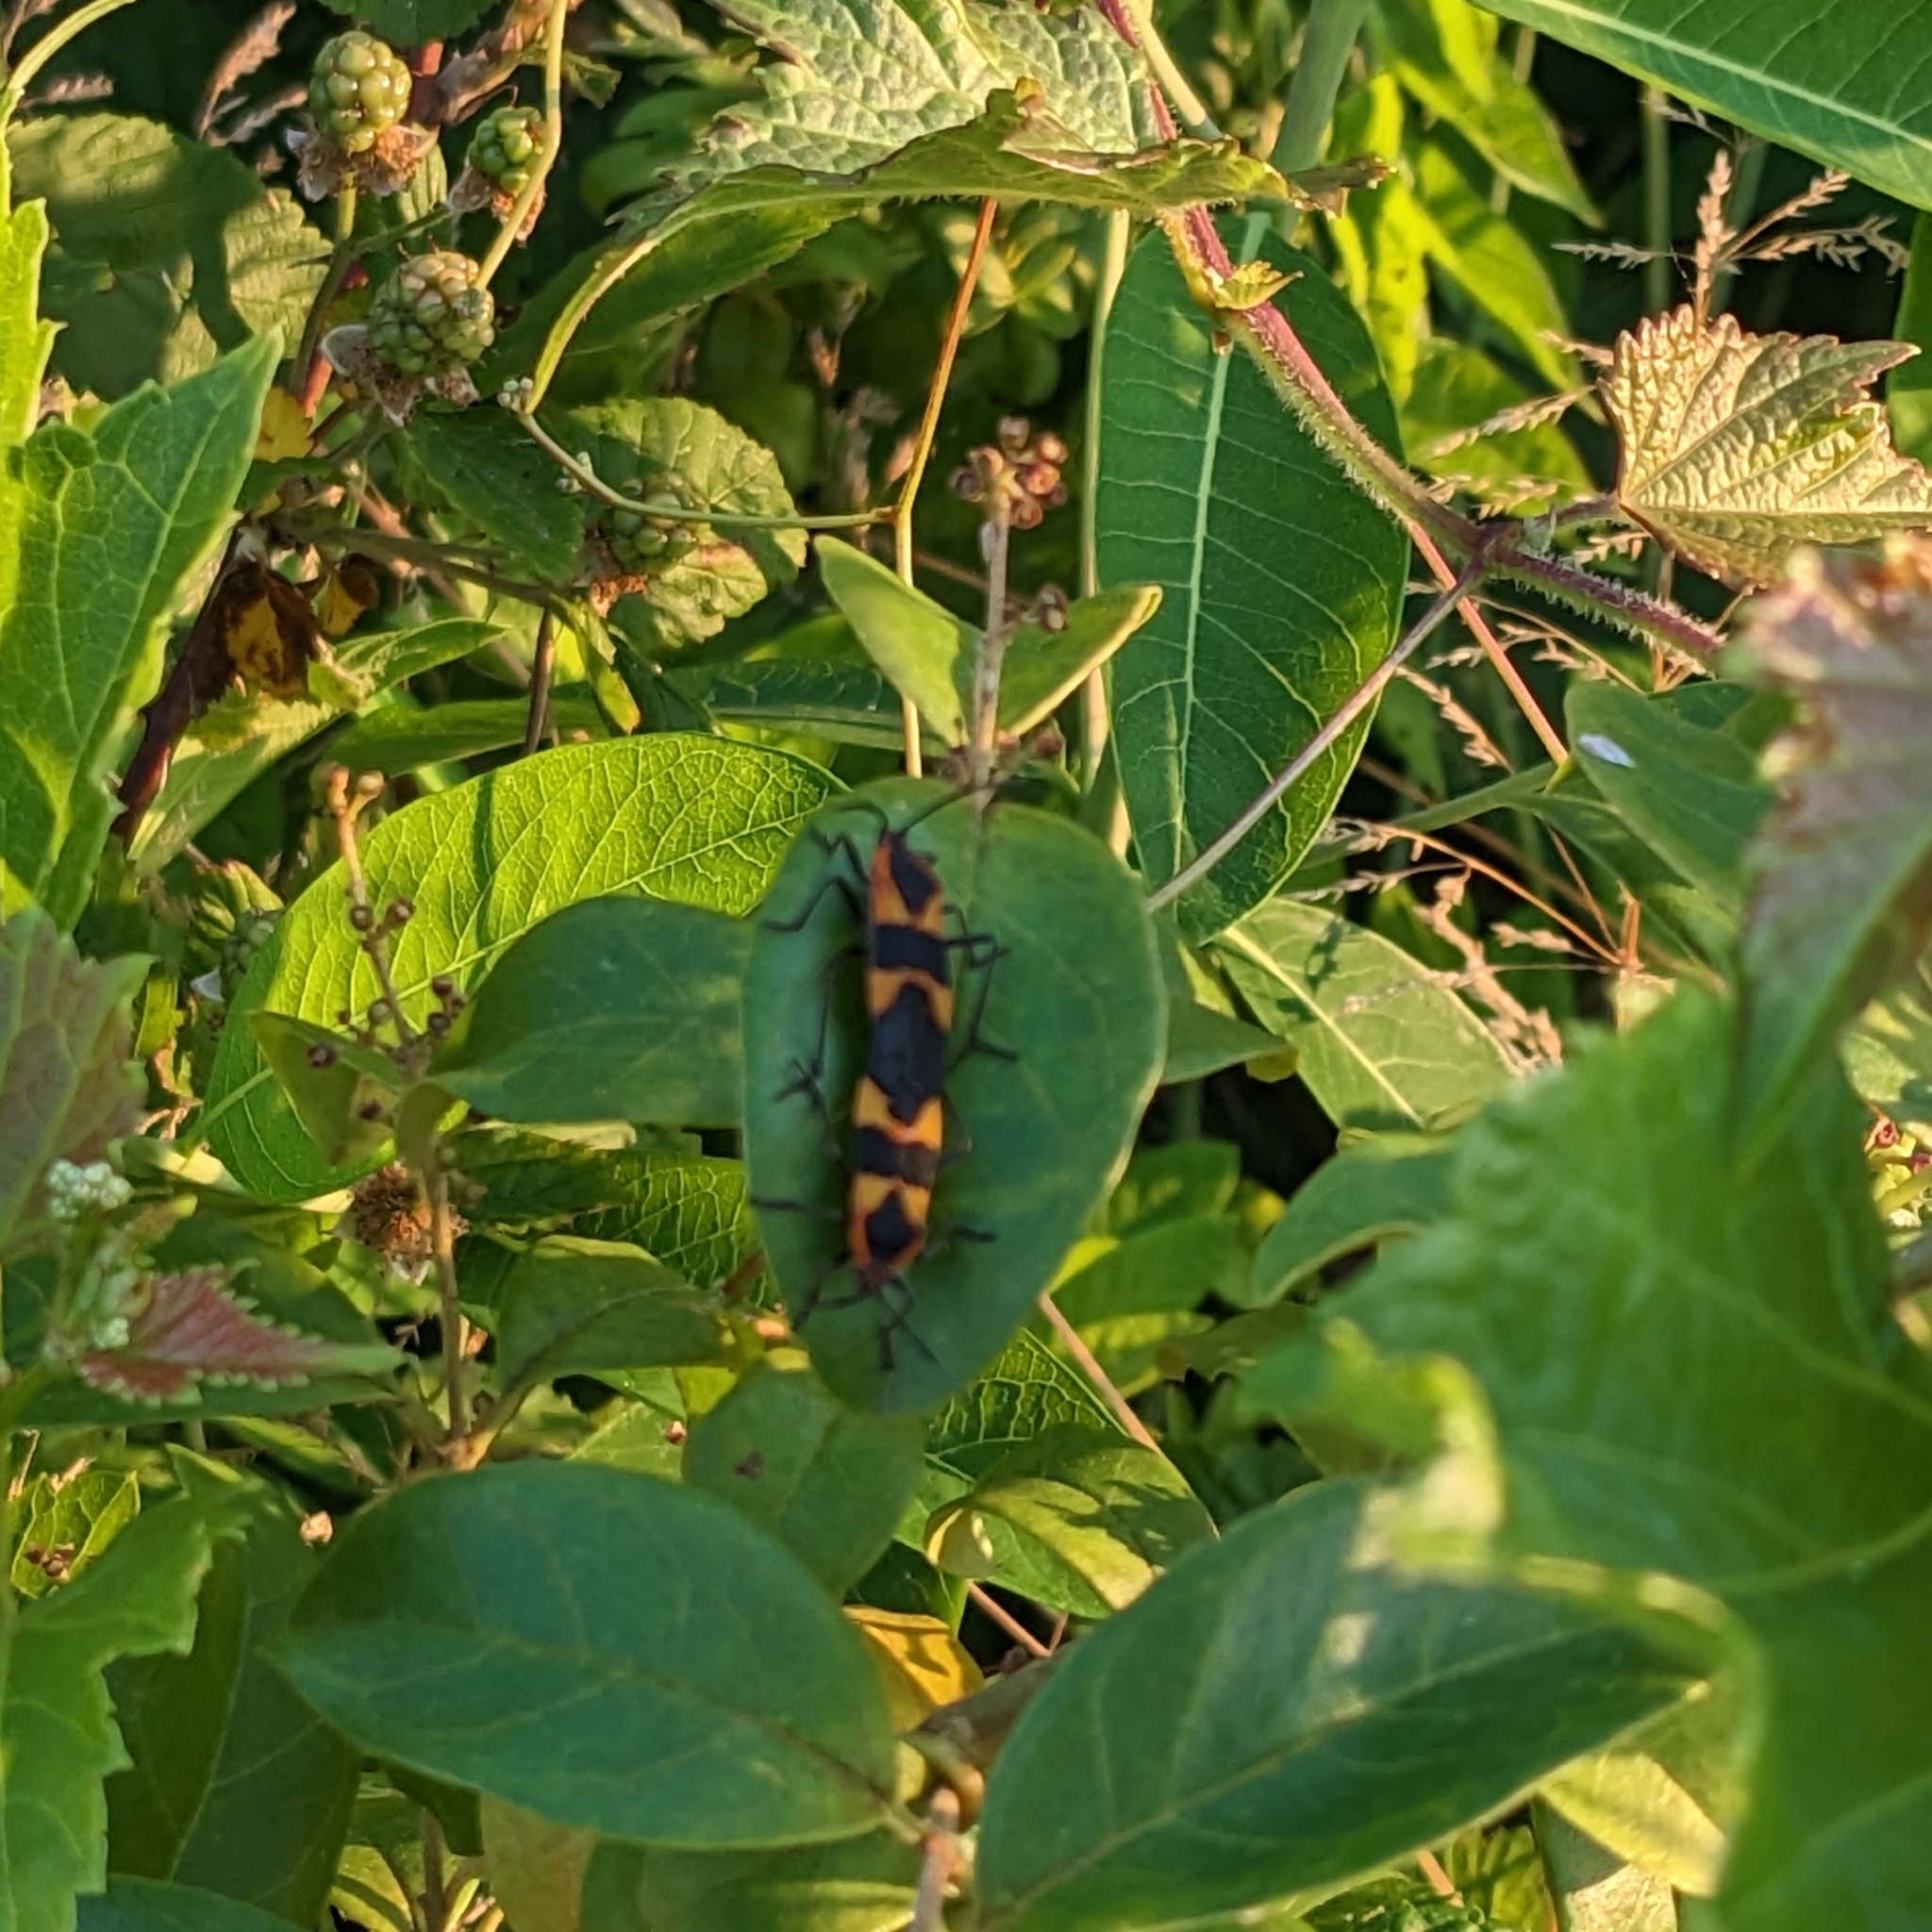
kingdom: Animalia
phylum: Arthropoda
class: Insecta
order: Hemiptera
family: Lygaeidae
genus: Oncopeltus
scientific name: Oncopeltus fasciatus
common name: Large milkweed bug
